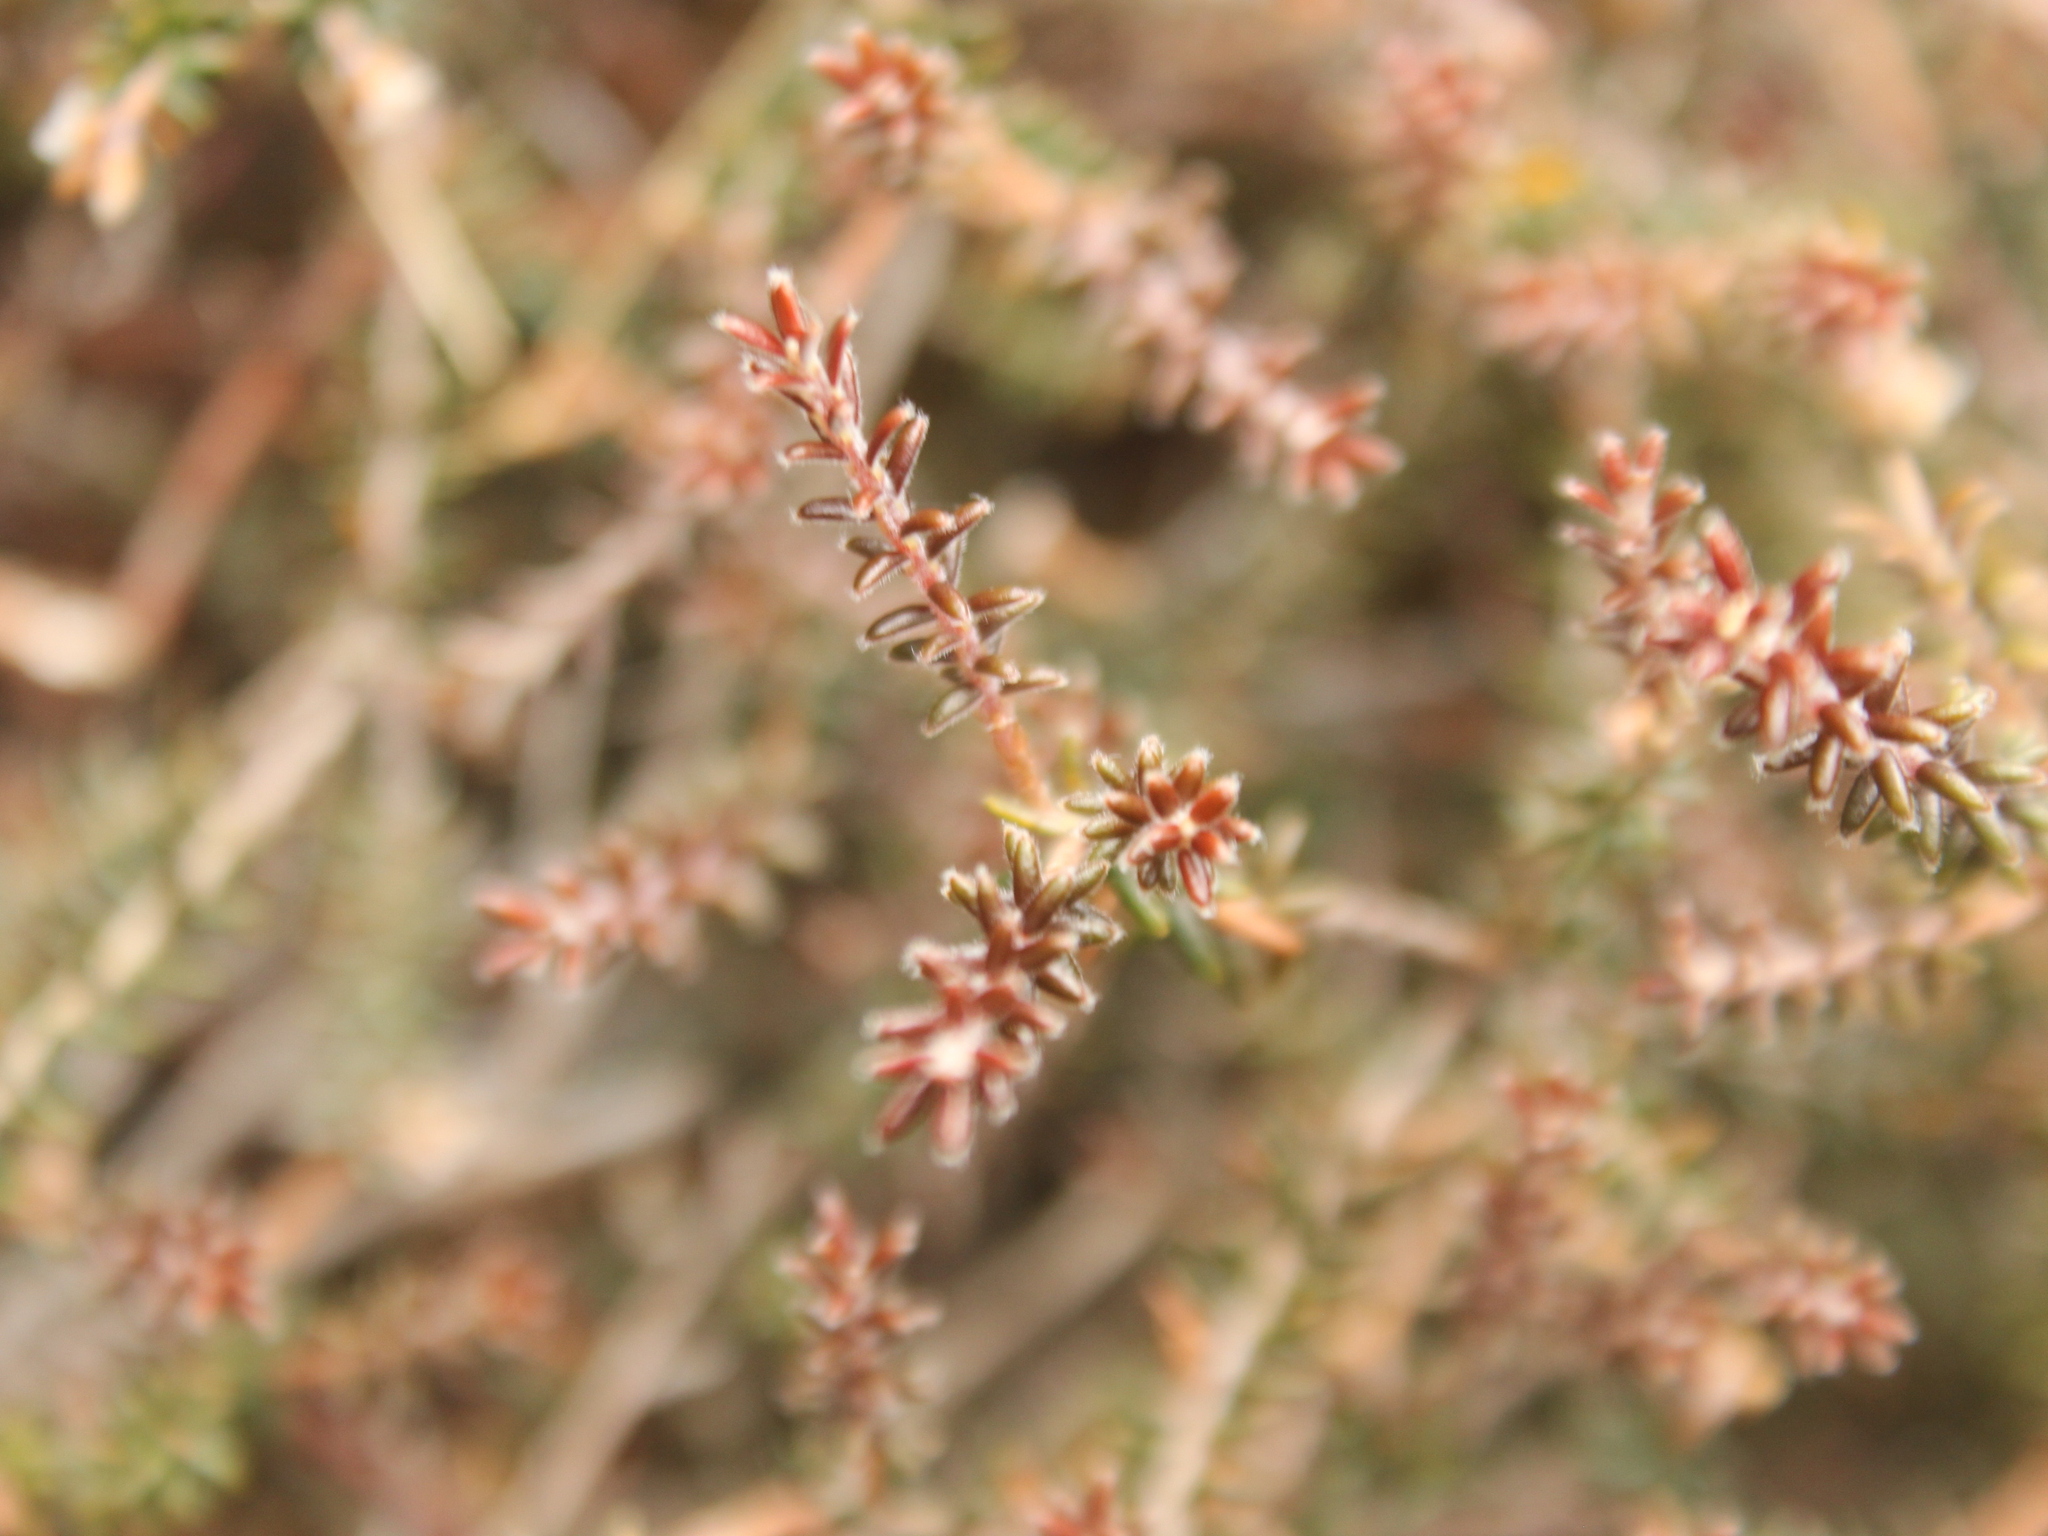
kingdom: Plantae
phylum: Tracheophyta
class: Magnoliopsida
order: Ericales
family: Ericaceae
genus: Androstoma
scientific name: Androstoma empetrifolia
